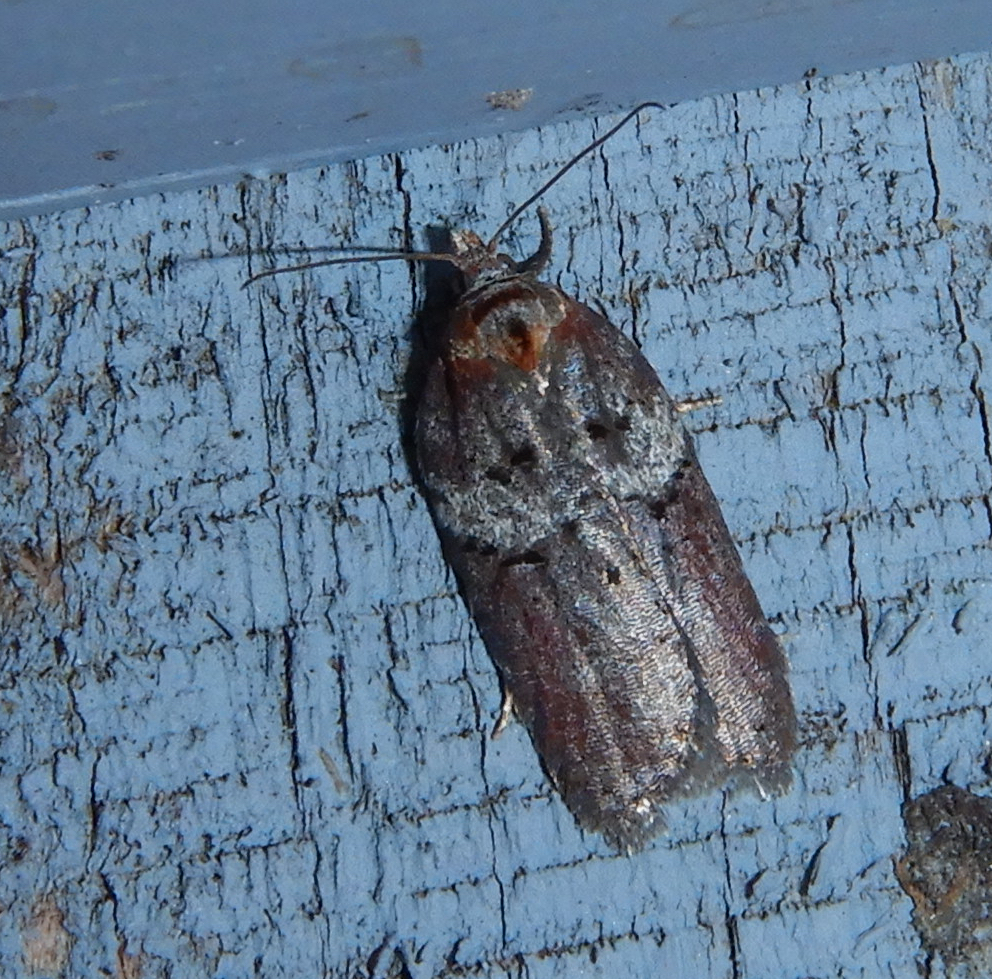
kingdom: Animalia
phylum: Arthropoda
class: Insecta
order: Lepidoptera
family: Tortricidae
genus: Acleris
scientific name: Acleris celiana
